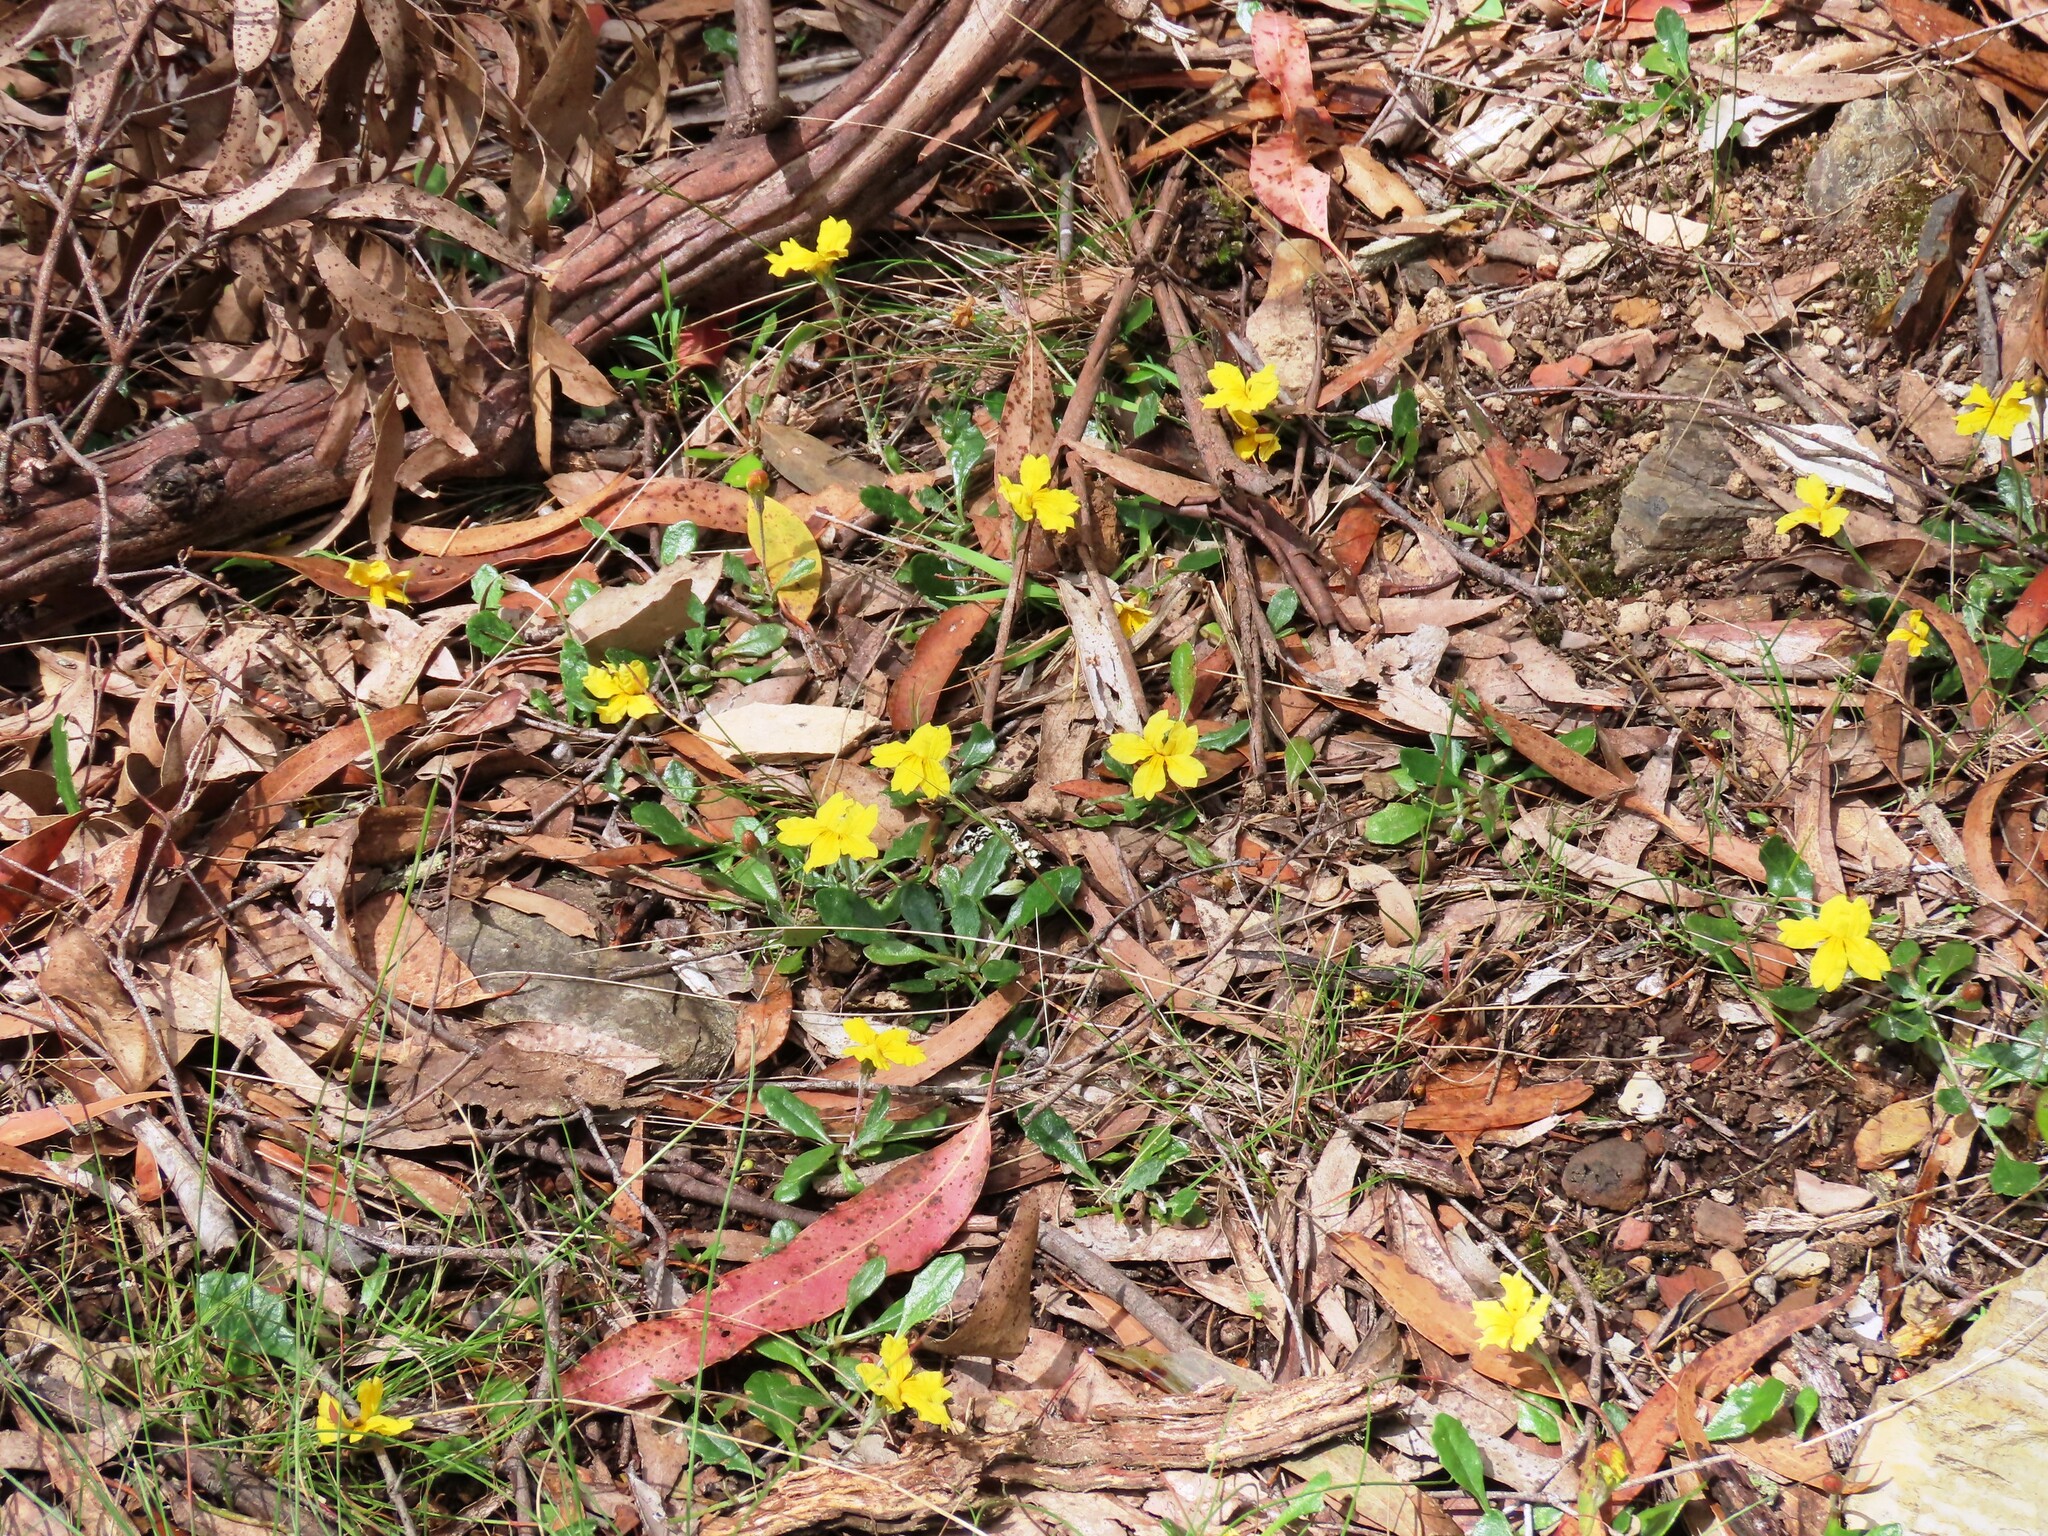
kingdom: Plantae
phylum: Tracheophyta
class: Magnoliopsida
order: Asterales
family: Goodeniaceae
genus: Goodenia
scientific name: Goodenia lanata
